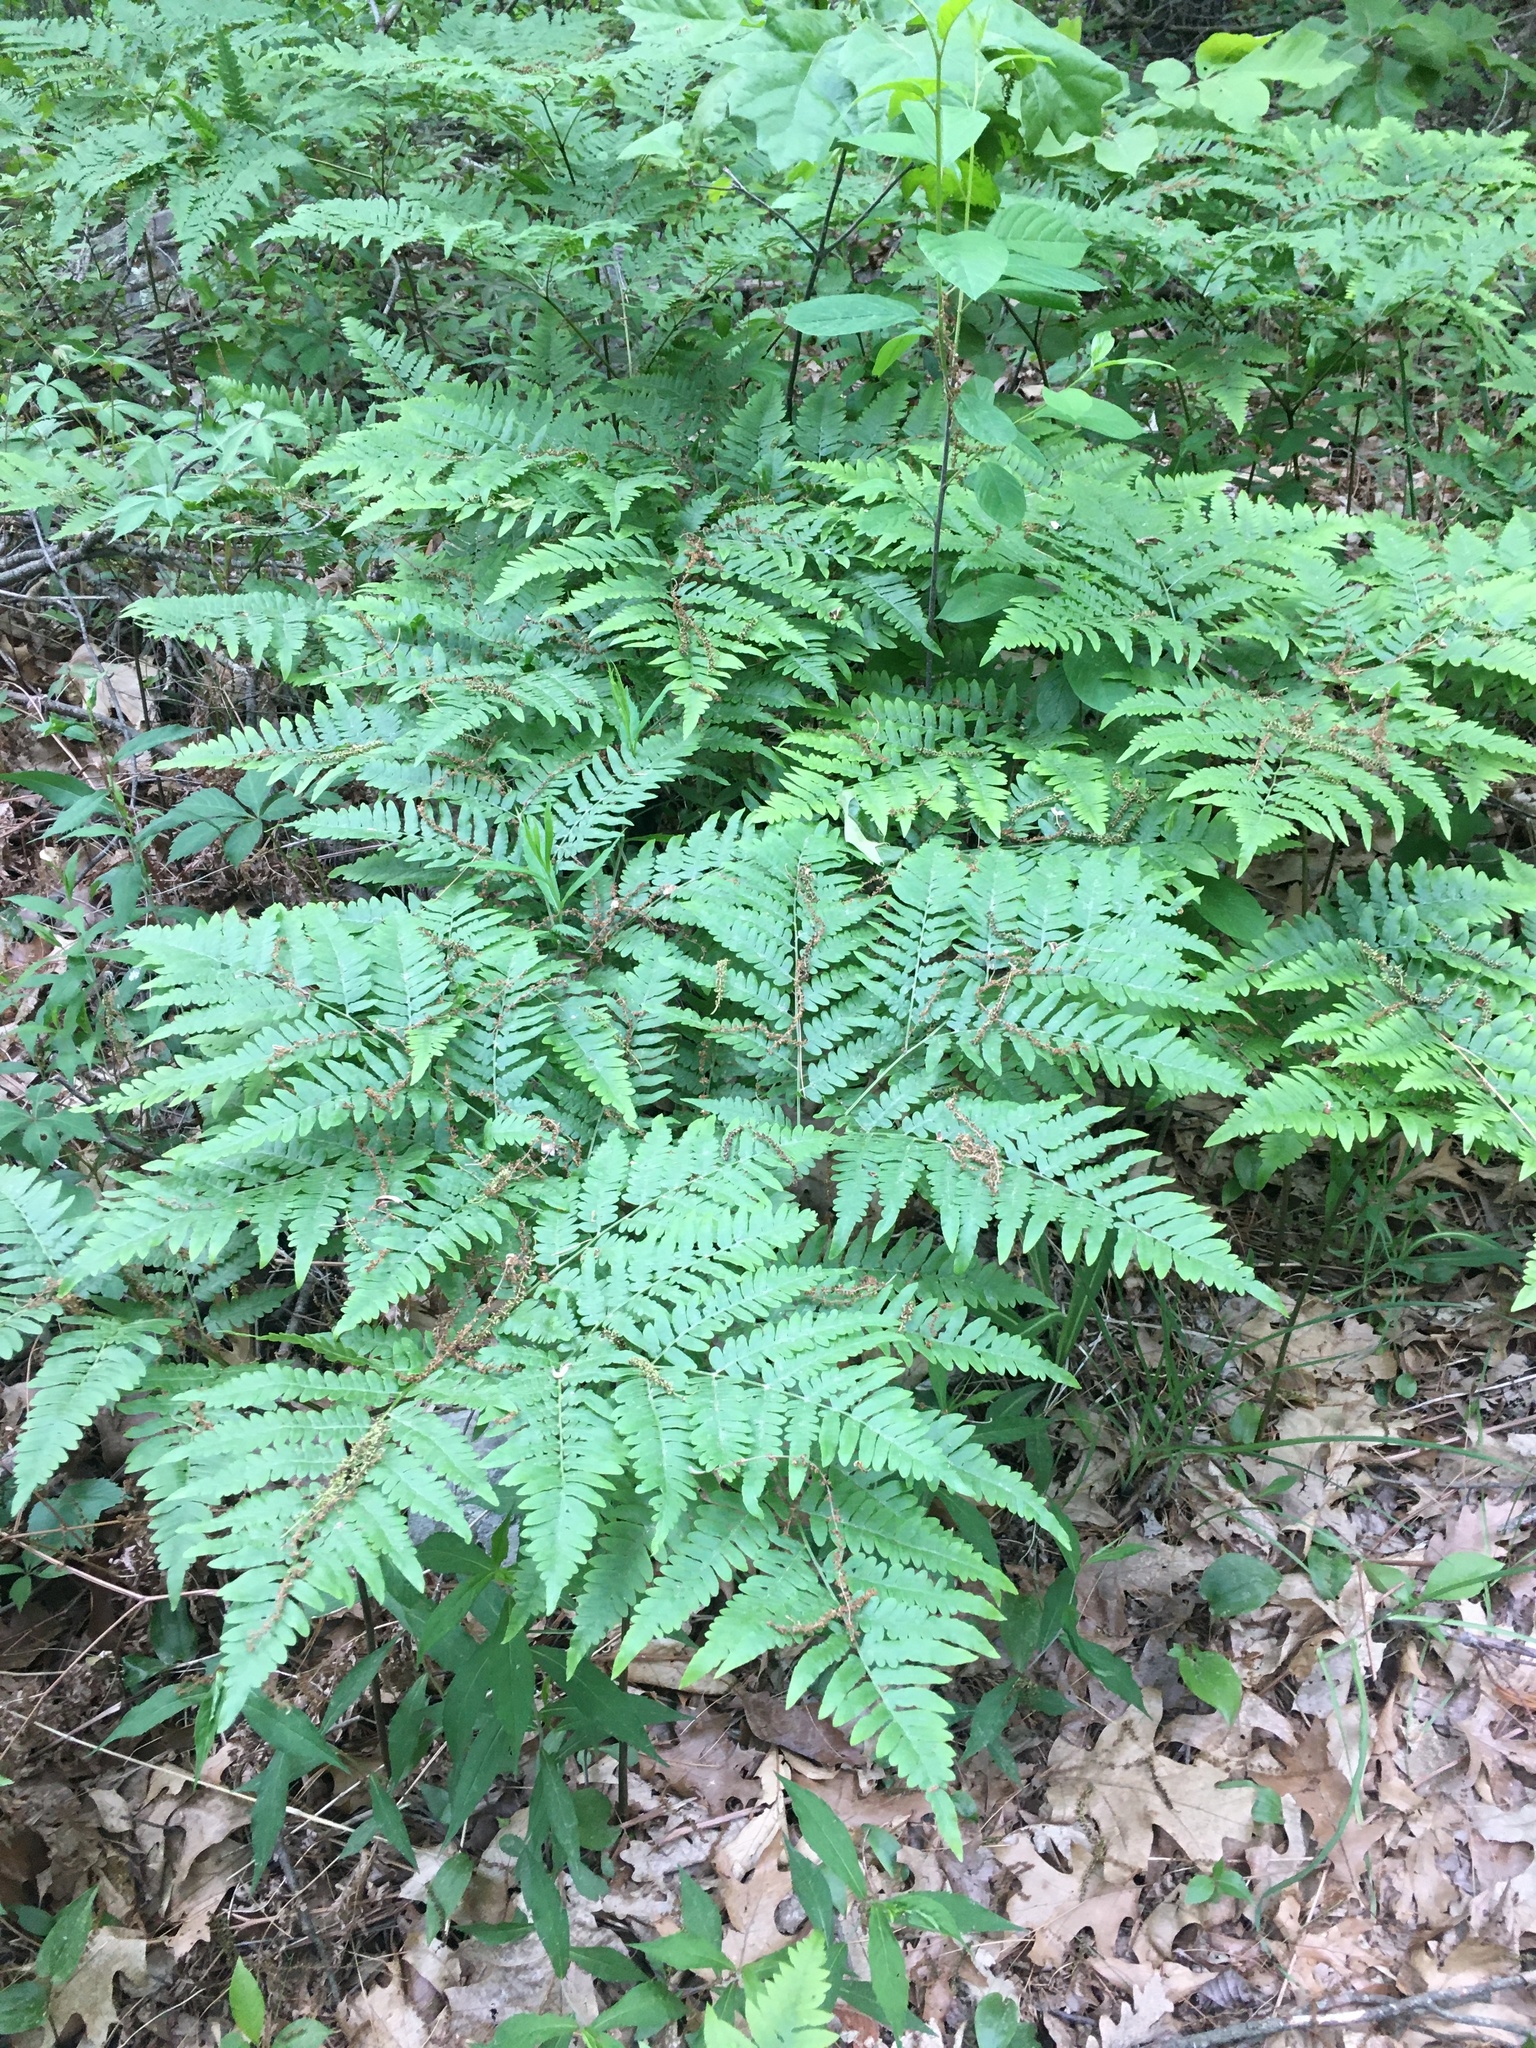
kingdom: Plantae
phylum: Tracheophyta
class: Polypodiopsida
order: Polypodiales
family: Dennstaedtiaceae
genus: Pteridium
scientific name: Pteridium aquilinum
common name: Bracken
